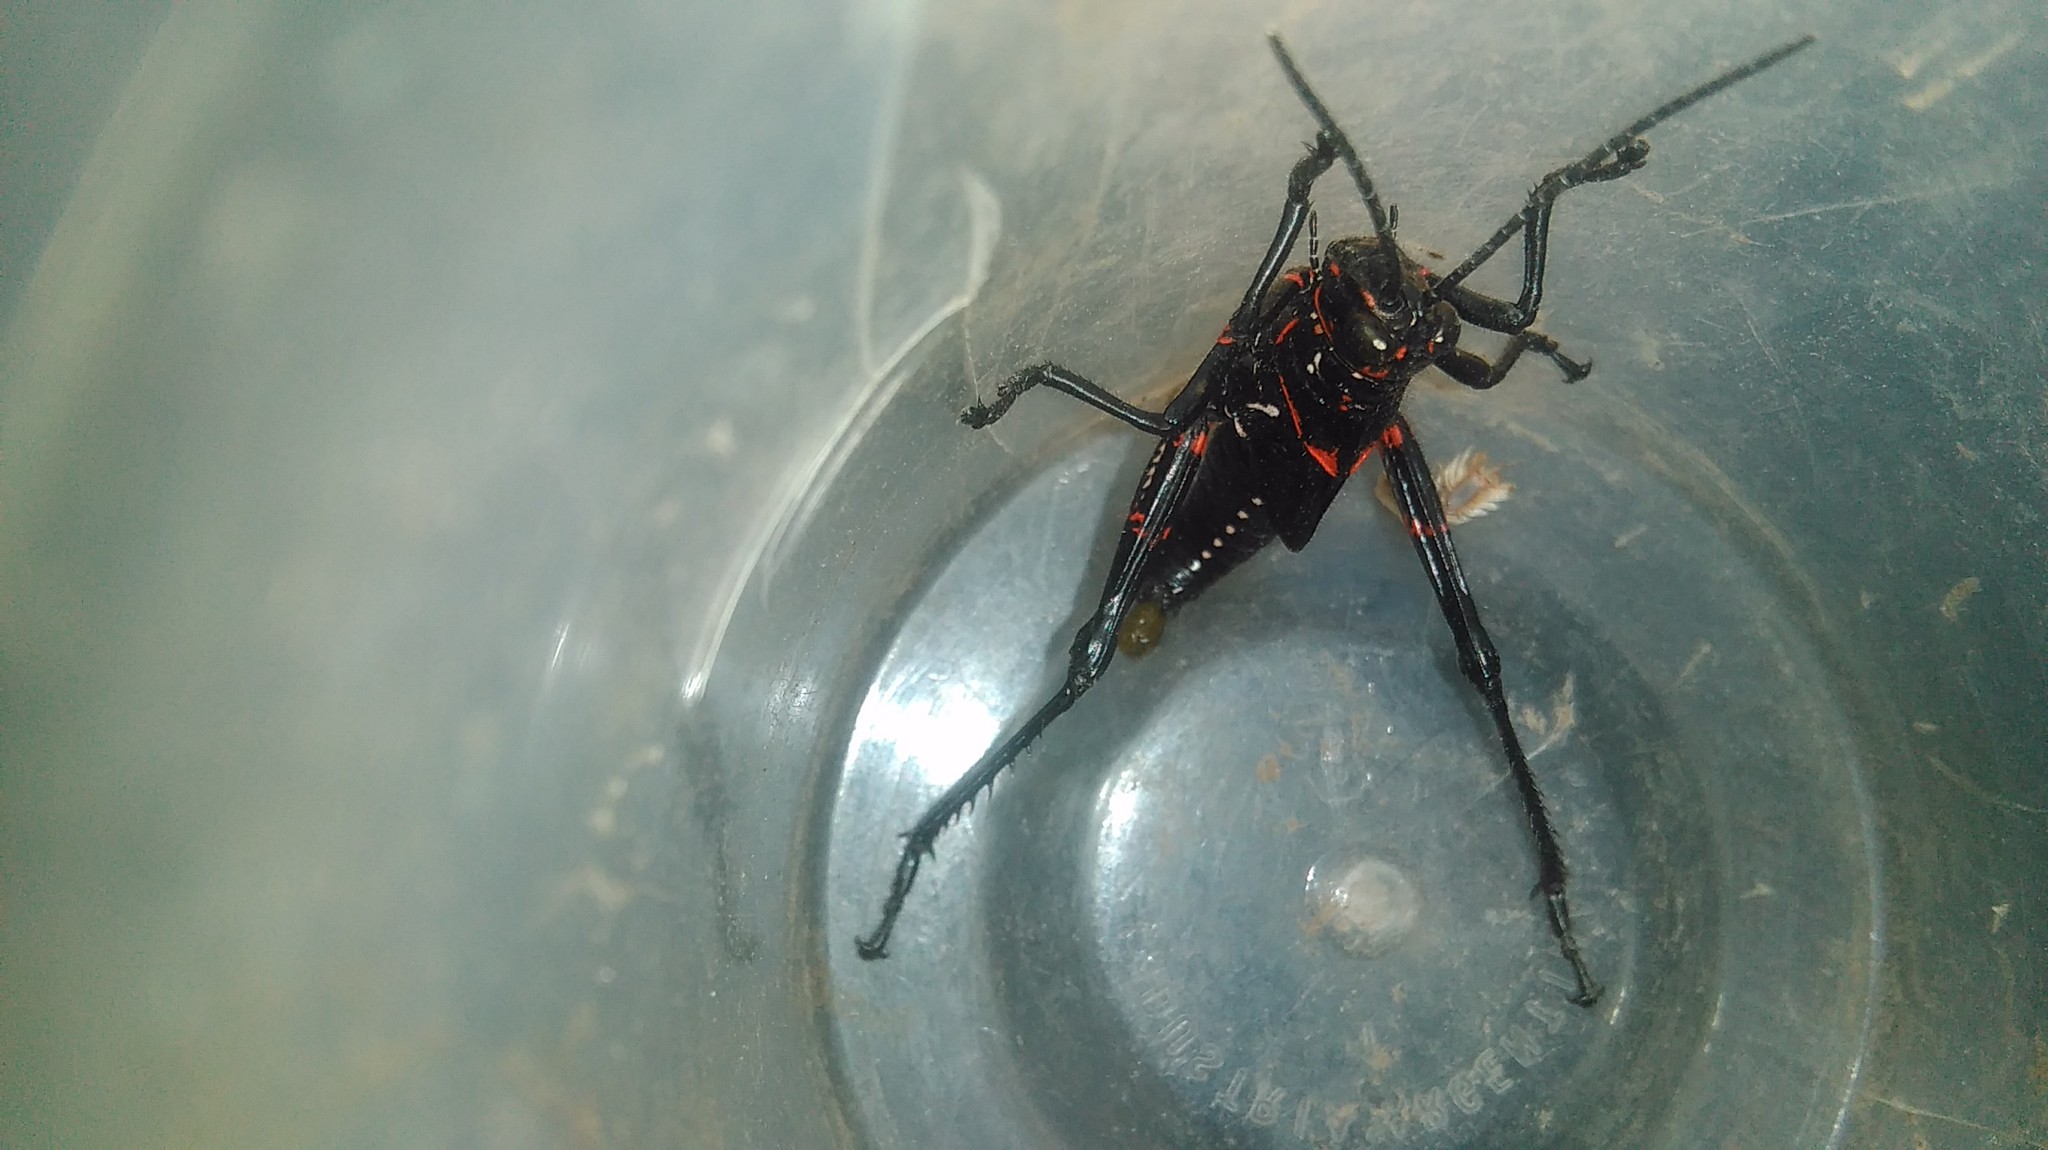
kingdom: Animalia
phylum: Arthropoda
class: Insecta
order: Orthoptera
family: Romaleidae
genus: Chromacris
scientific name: Chromacris speciosa
